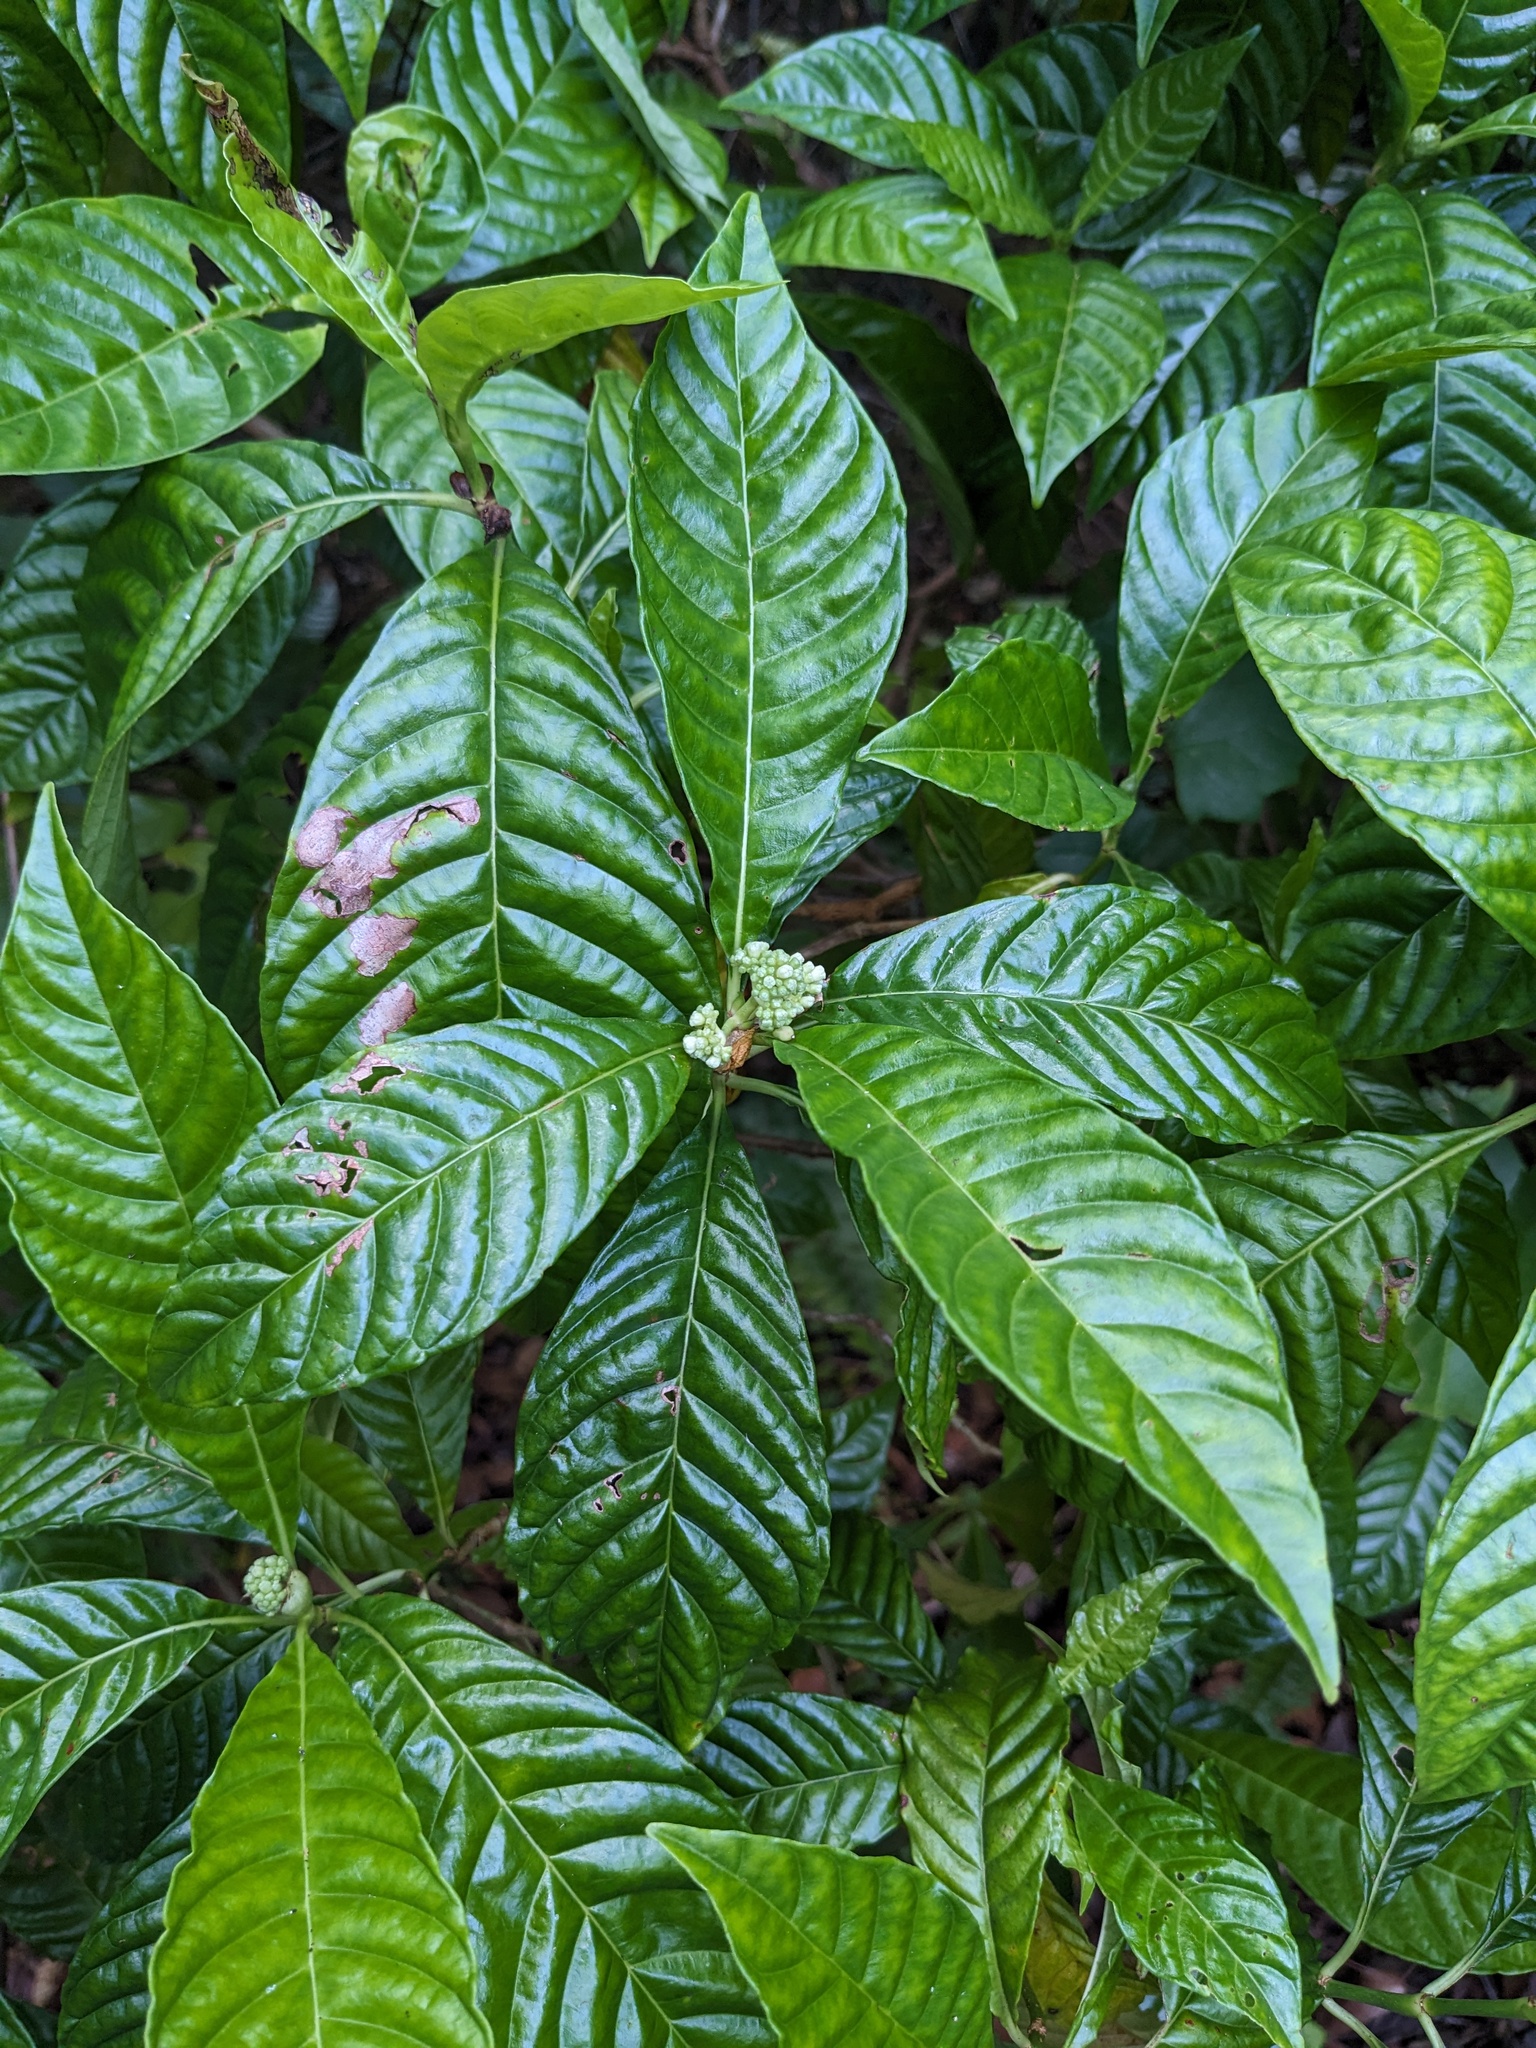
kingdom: Plantae
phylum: Tracheophyta
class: Magnoliopsida
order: Gentianales
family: Rubiaceae
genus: Psychotria
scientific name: Psychotria nervosa
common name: Bastard cankerberry
